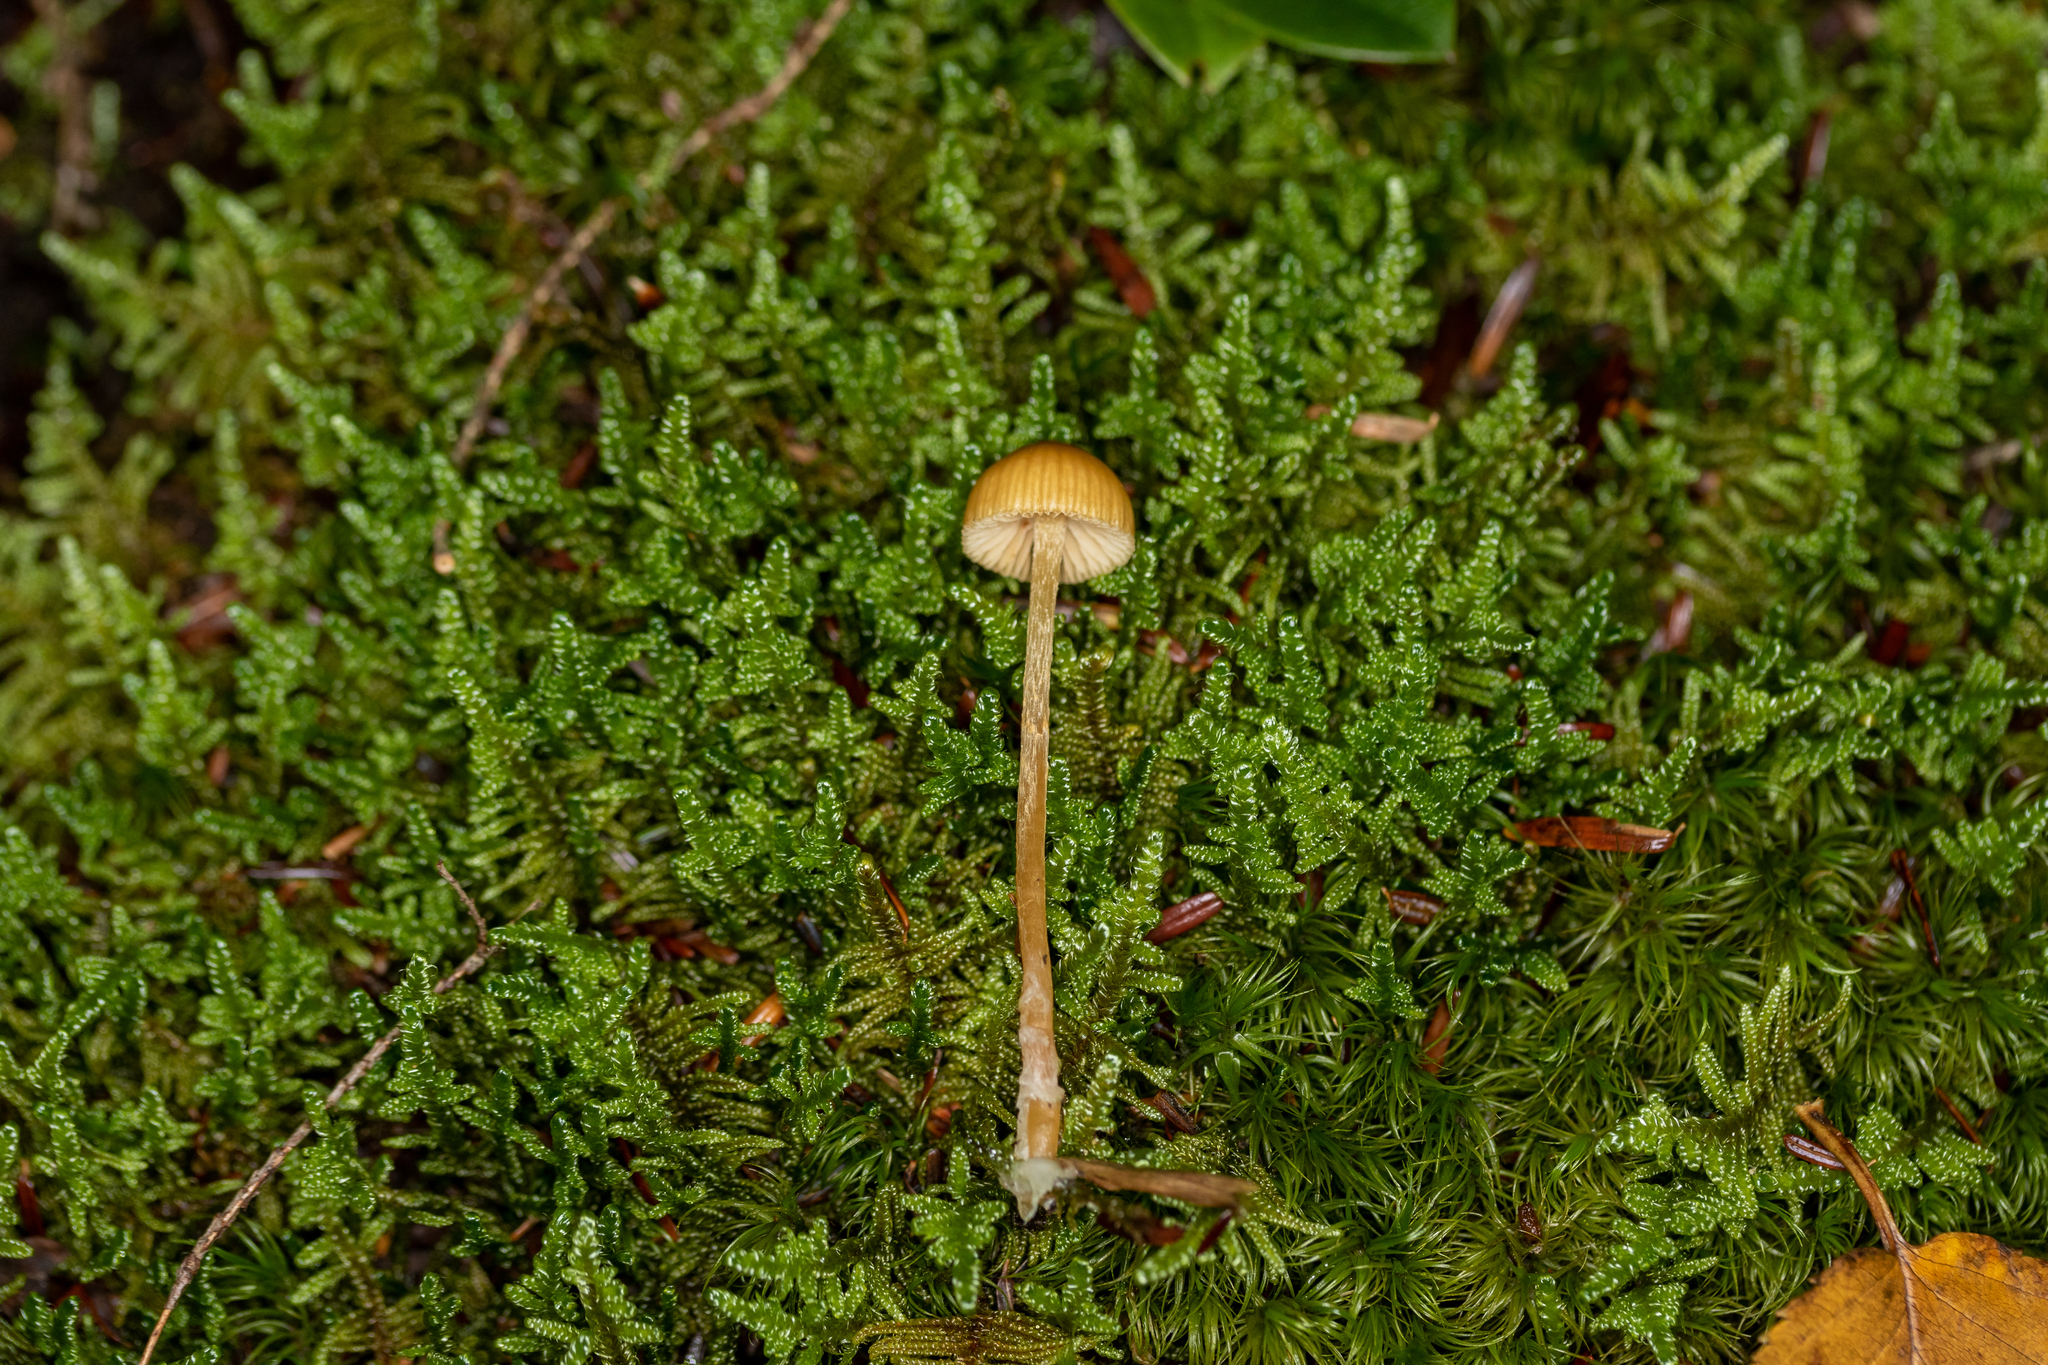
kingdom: Fungi
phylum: Basidiomycota
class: Agaricomycetes
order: Agaricales
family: Hymenogastraceae
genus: Galerina
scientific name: Galerina pumila
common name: Dwarf bell
